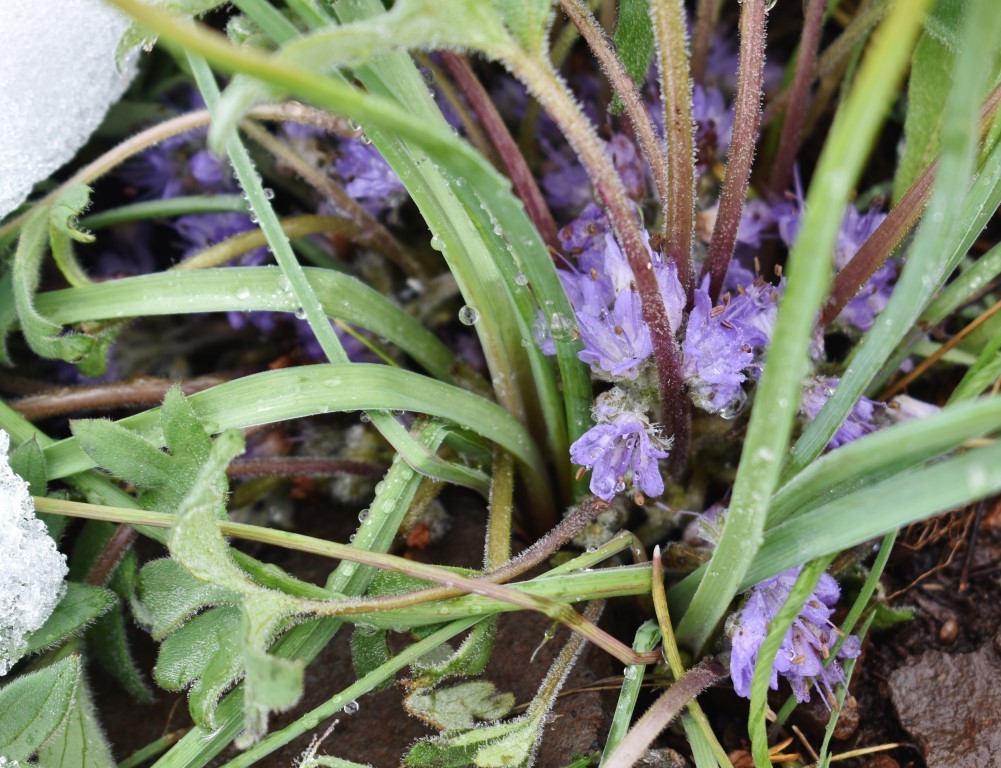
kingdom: Plantae
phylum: Tracheophyta
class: Magnoliopsida
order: Boraginales
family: Hydrophyllaceae
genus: Hydrophyllum
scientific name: Hydrophyllum alpestre
